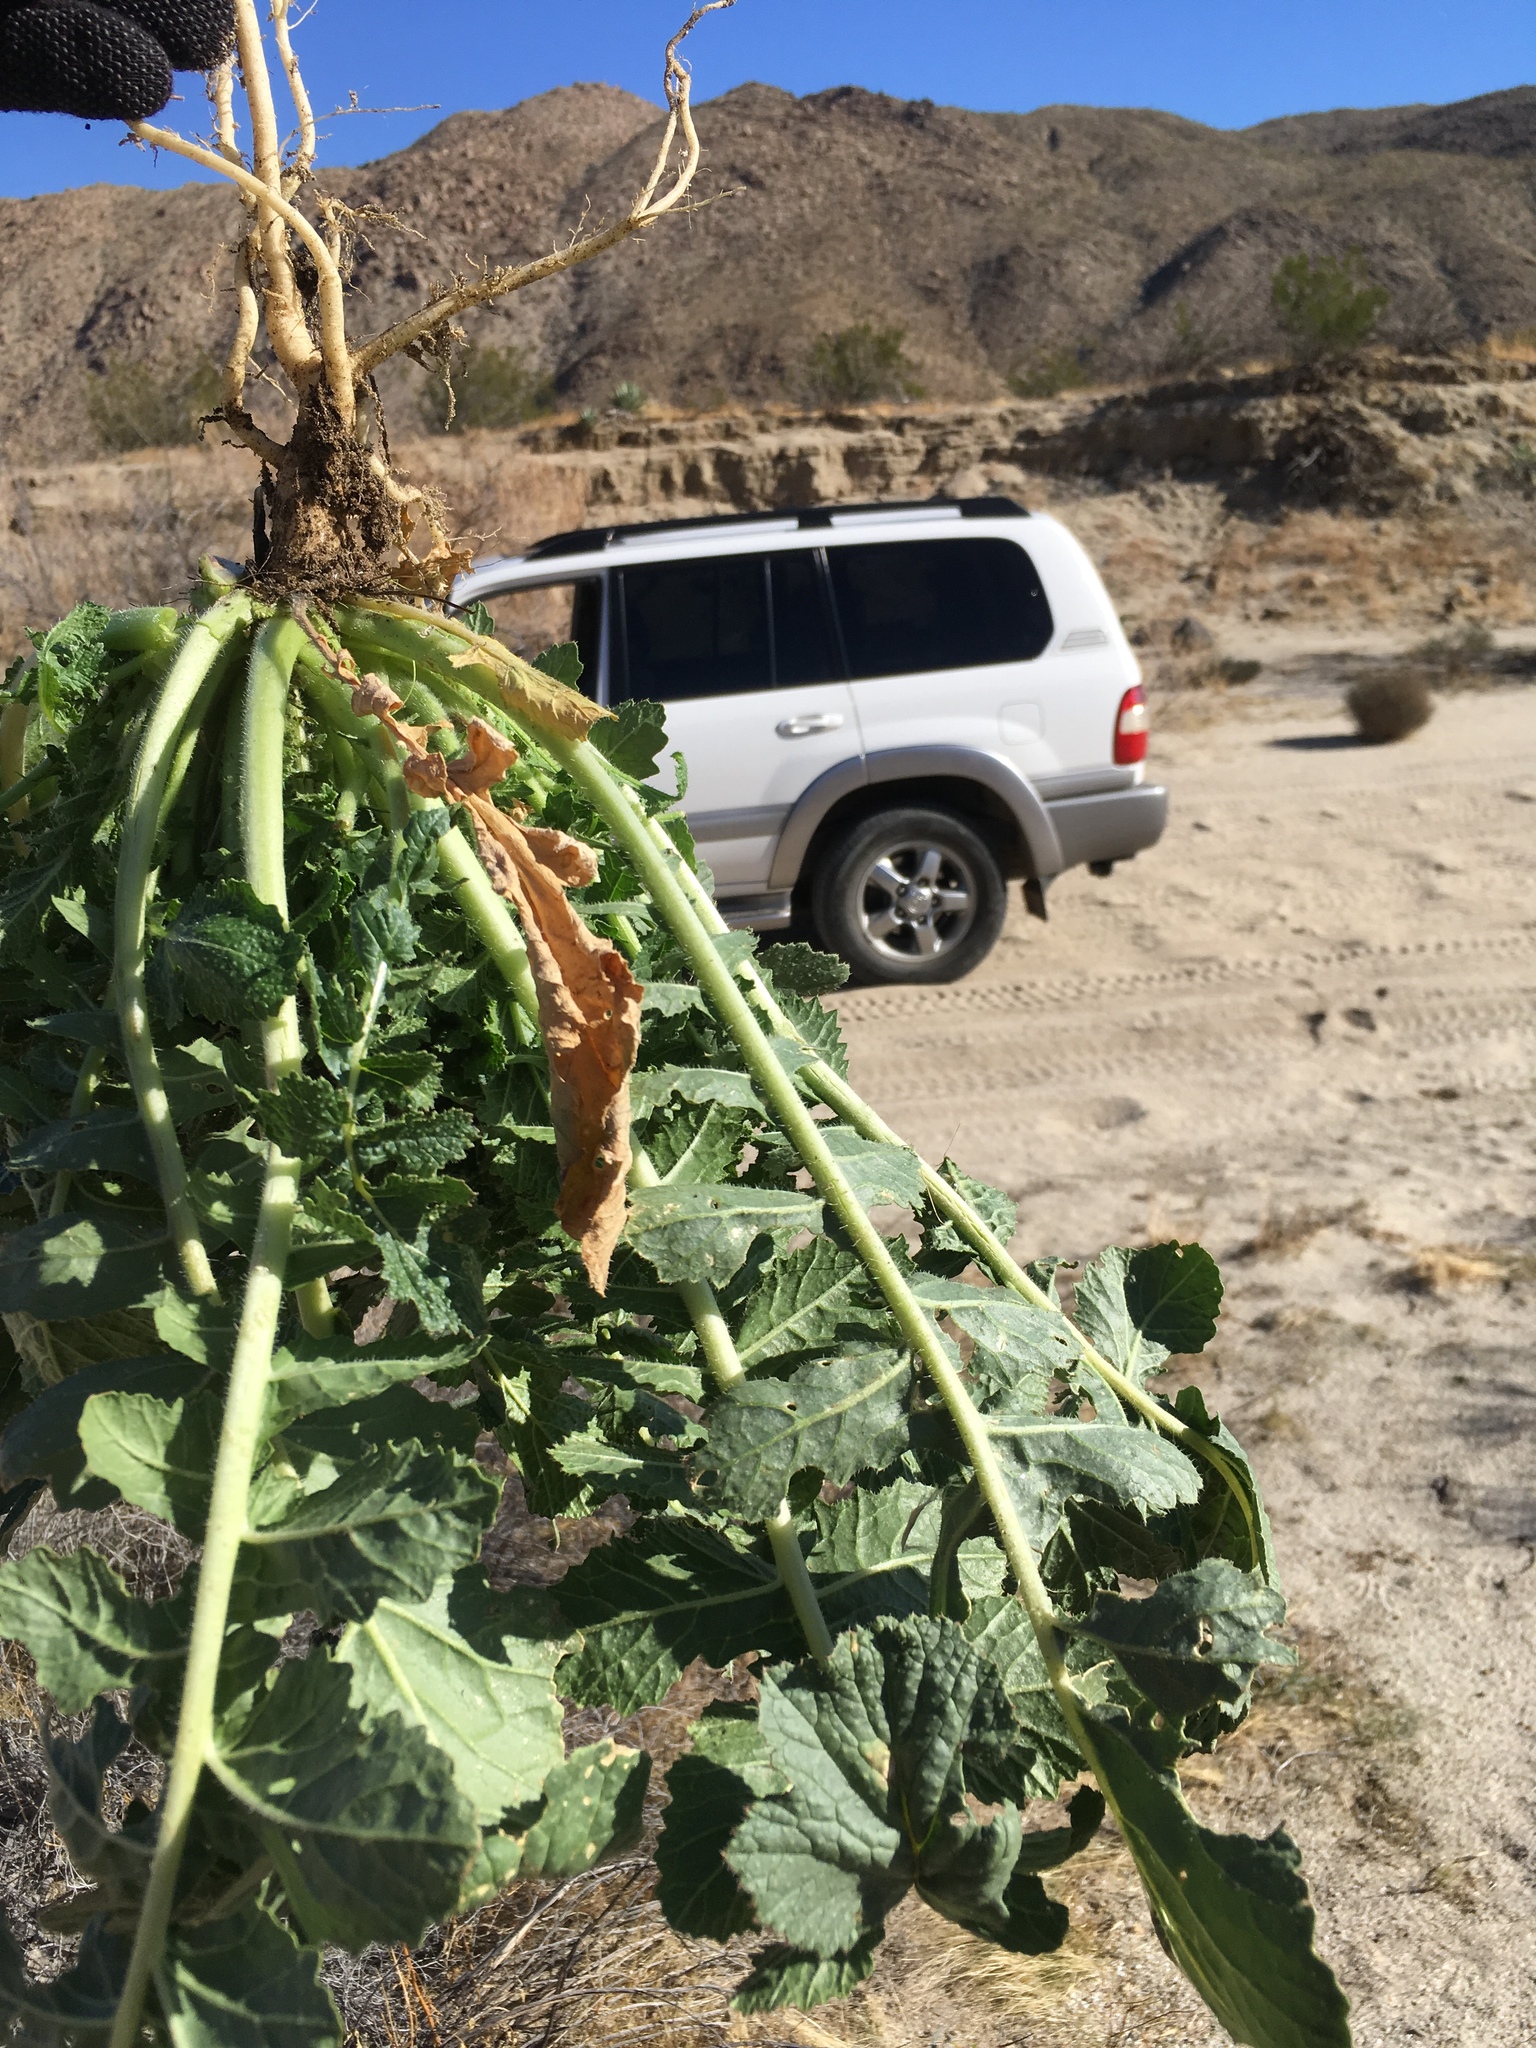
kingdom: Plantae
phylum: Tracheophyta
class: Magnoliopsida
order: Brassicales
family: Brassicaceae
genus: Brassica
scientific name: Brassica tournefortii
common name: Pale cabbage
